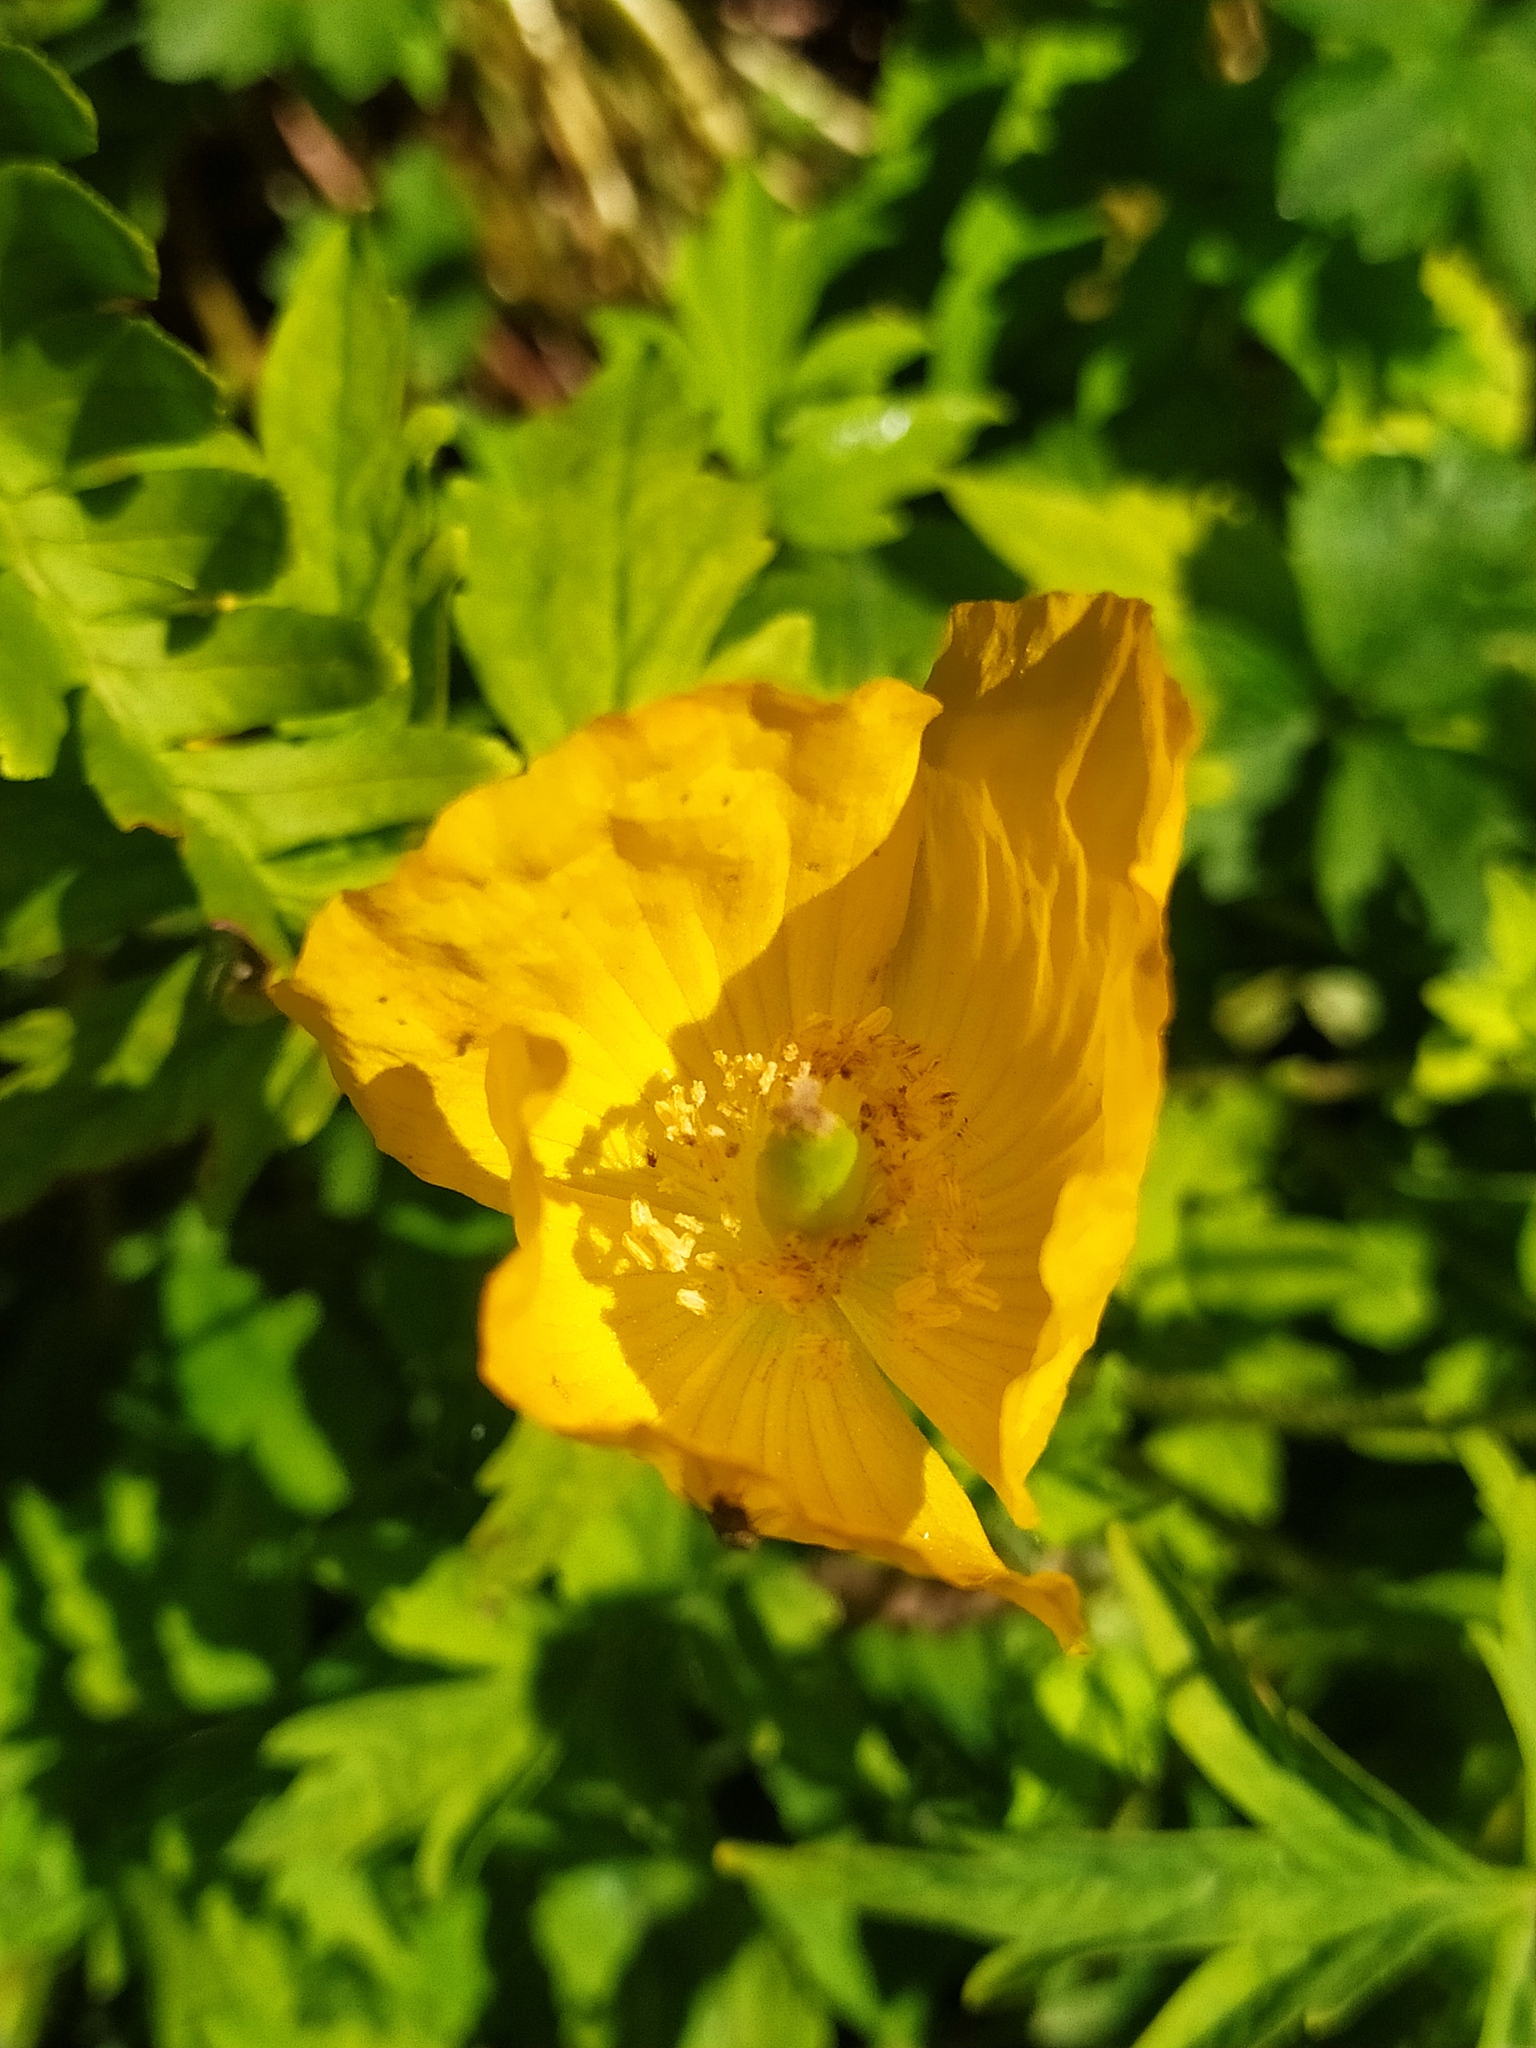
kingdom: Plantae
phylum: Tracheophyta
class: Magnoliopsida
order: Ranunculales
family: Papaveraceae
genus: Papaver
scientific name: Papaver cambricum
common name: Poppy
